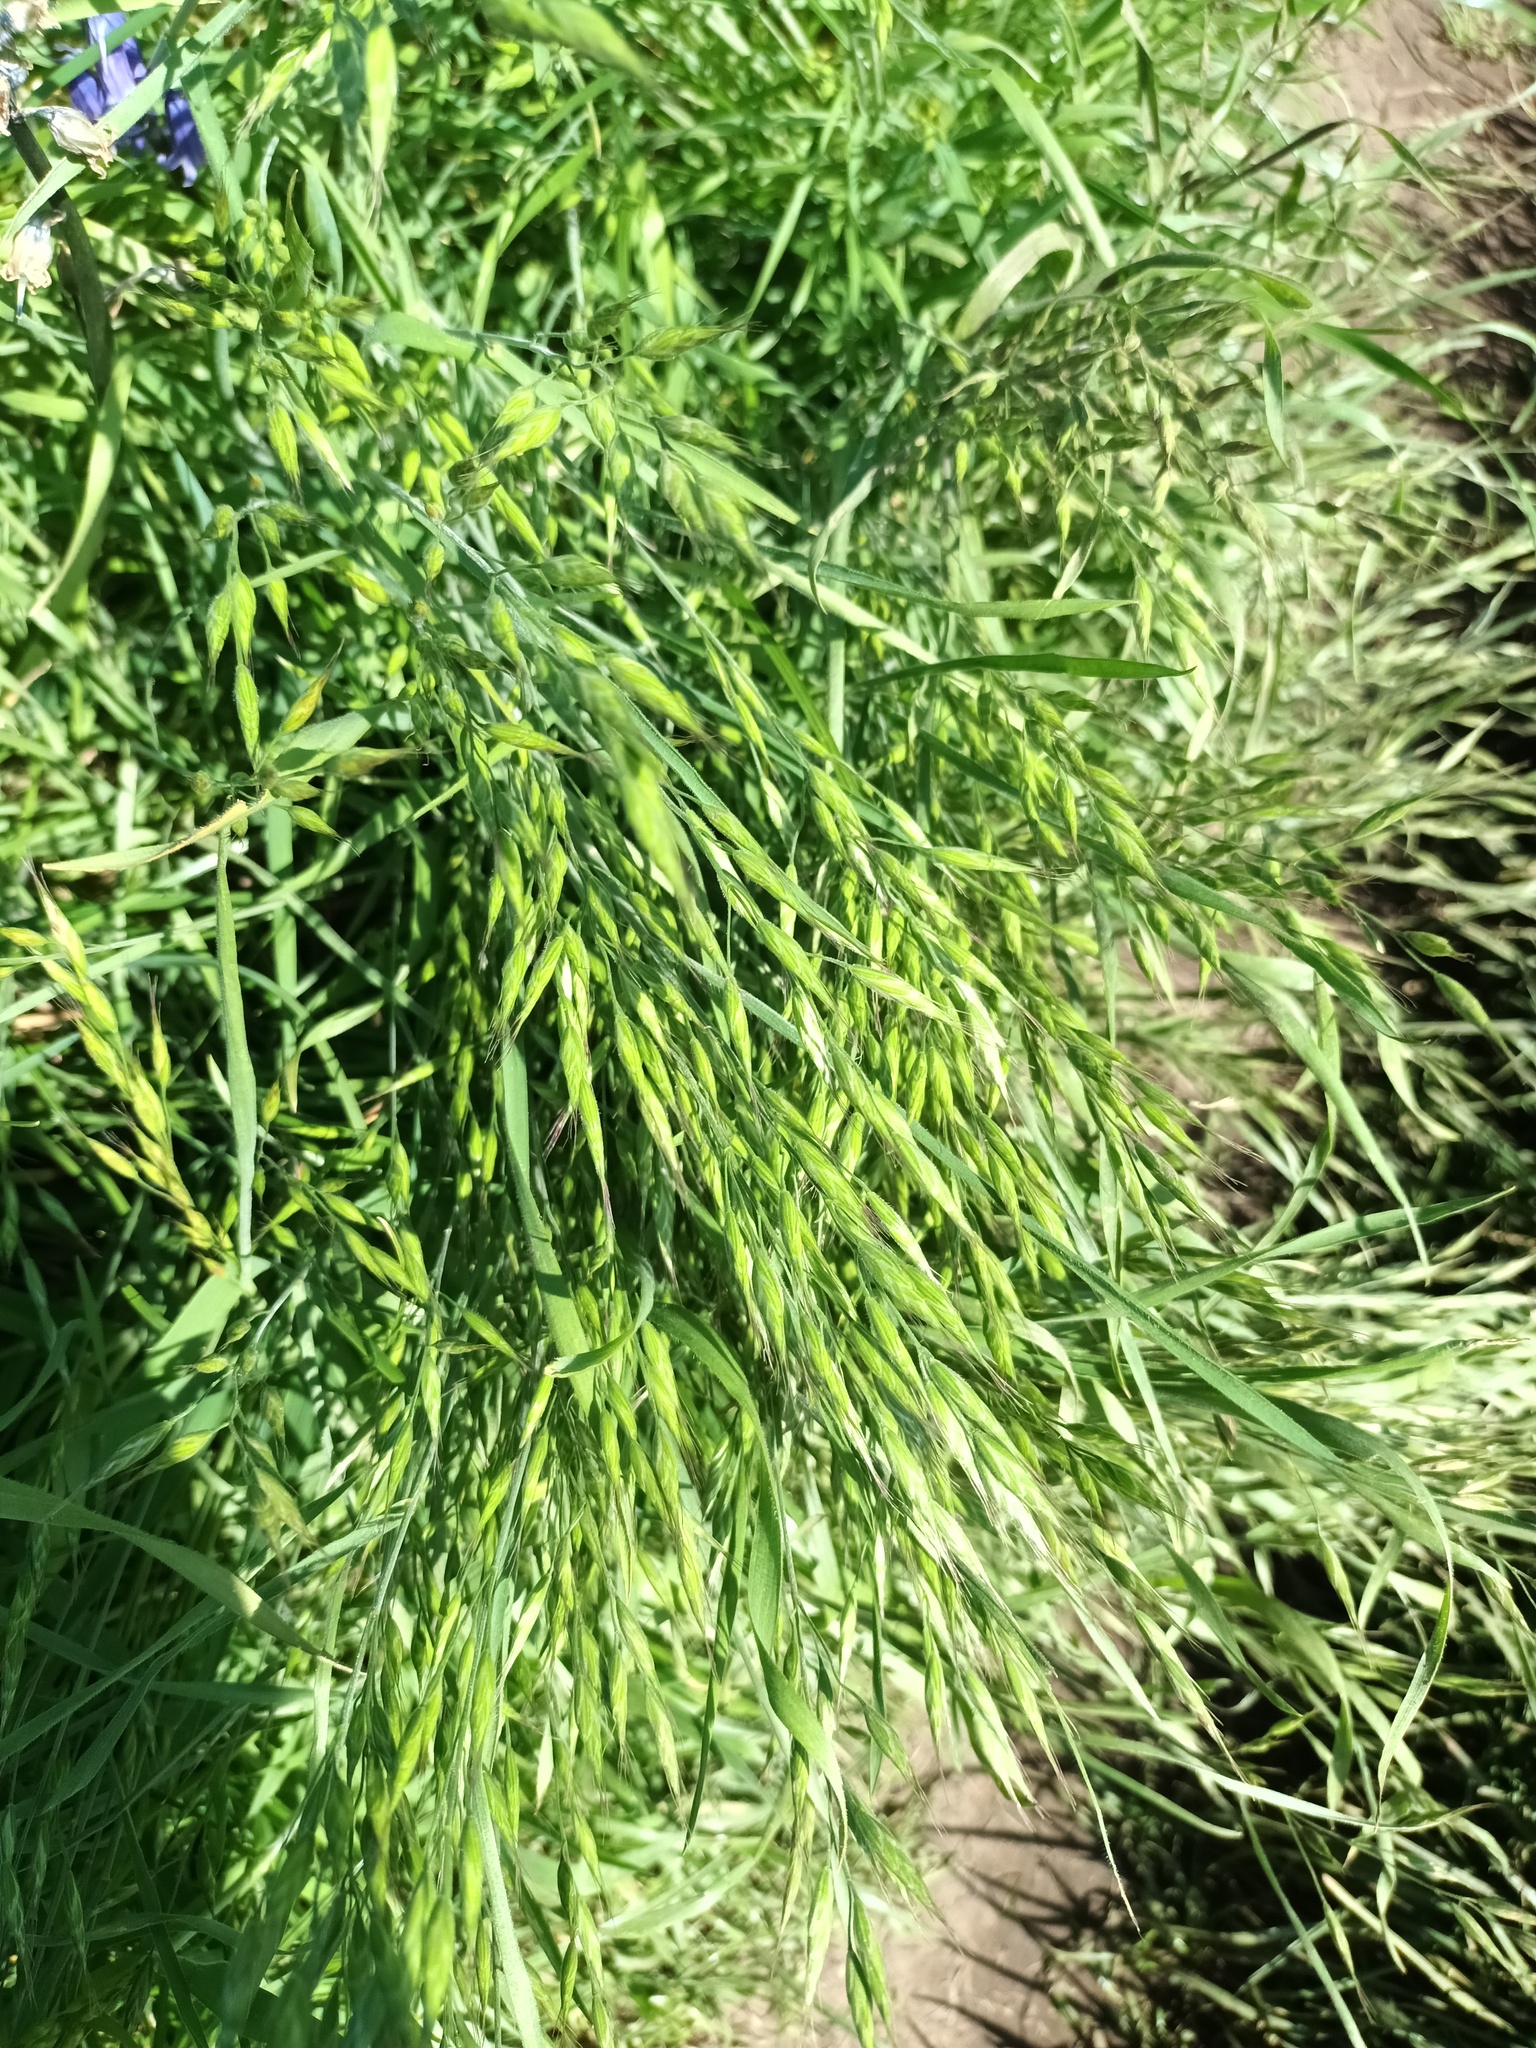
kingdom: Plantae
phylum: Tracheophyta
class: Liliopsida
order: Poales
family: Poaceae
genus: Bromus
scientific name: Bromus hordeaceus
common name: Soft brome
